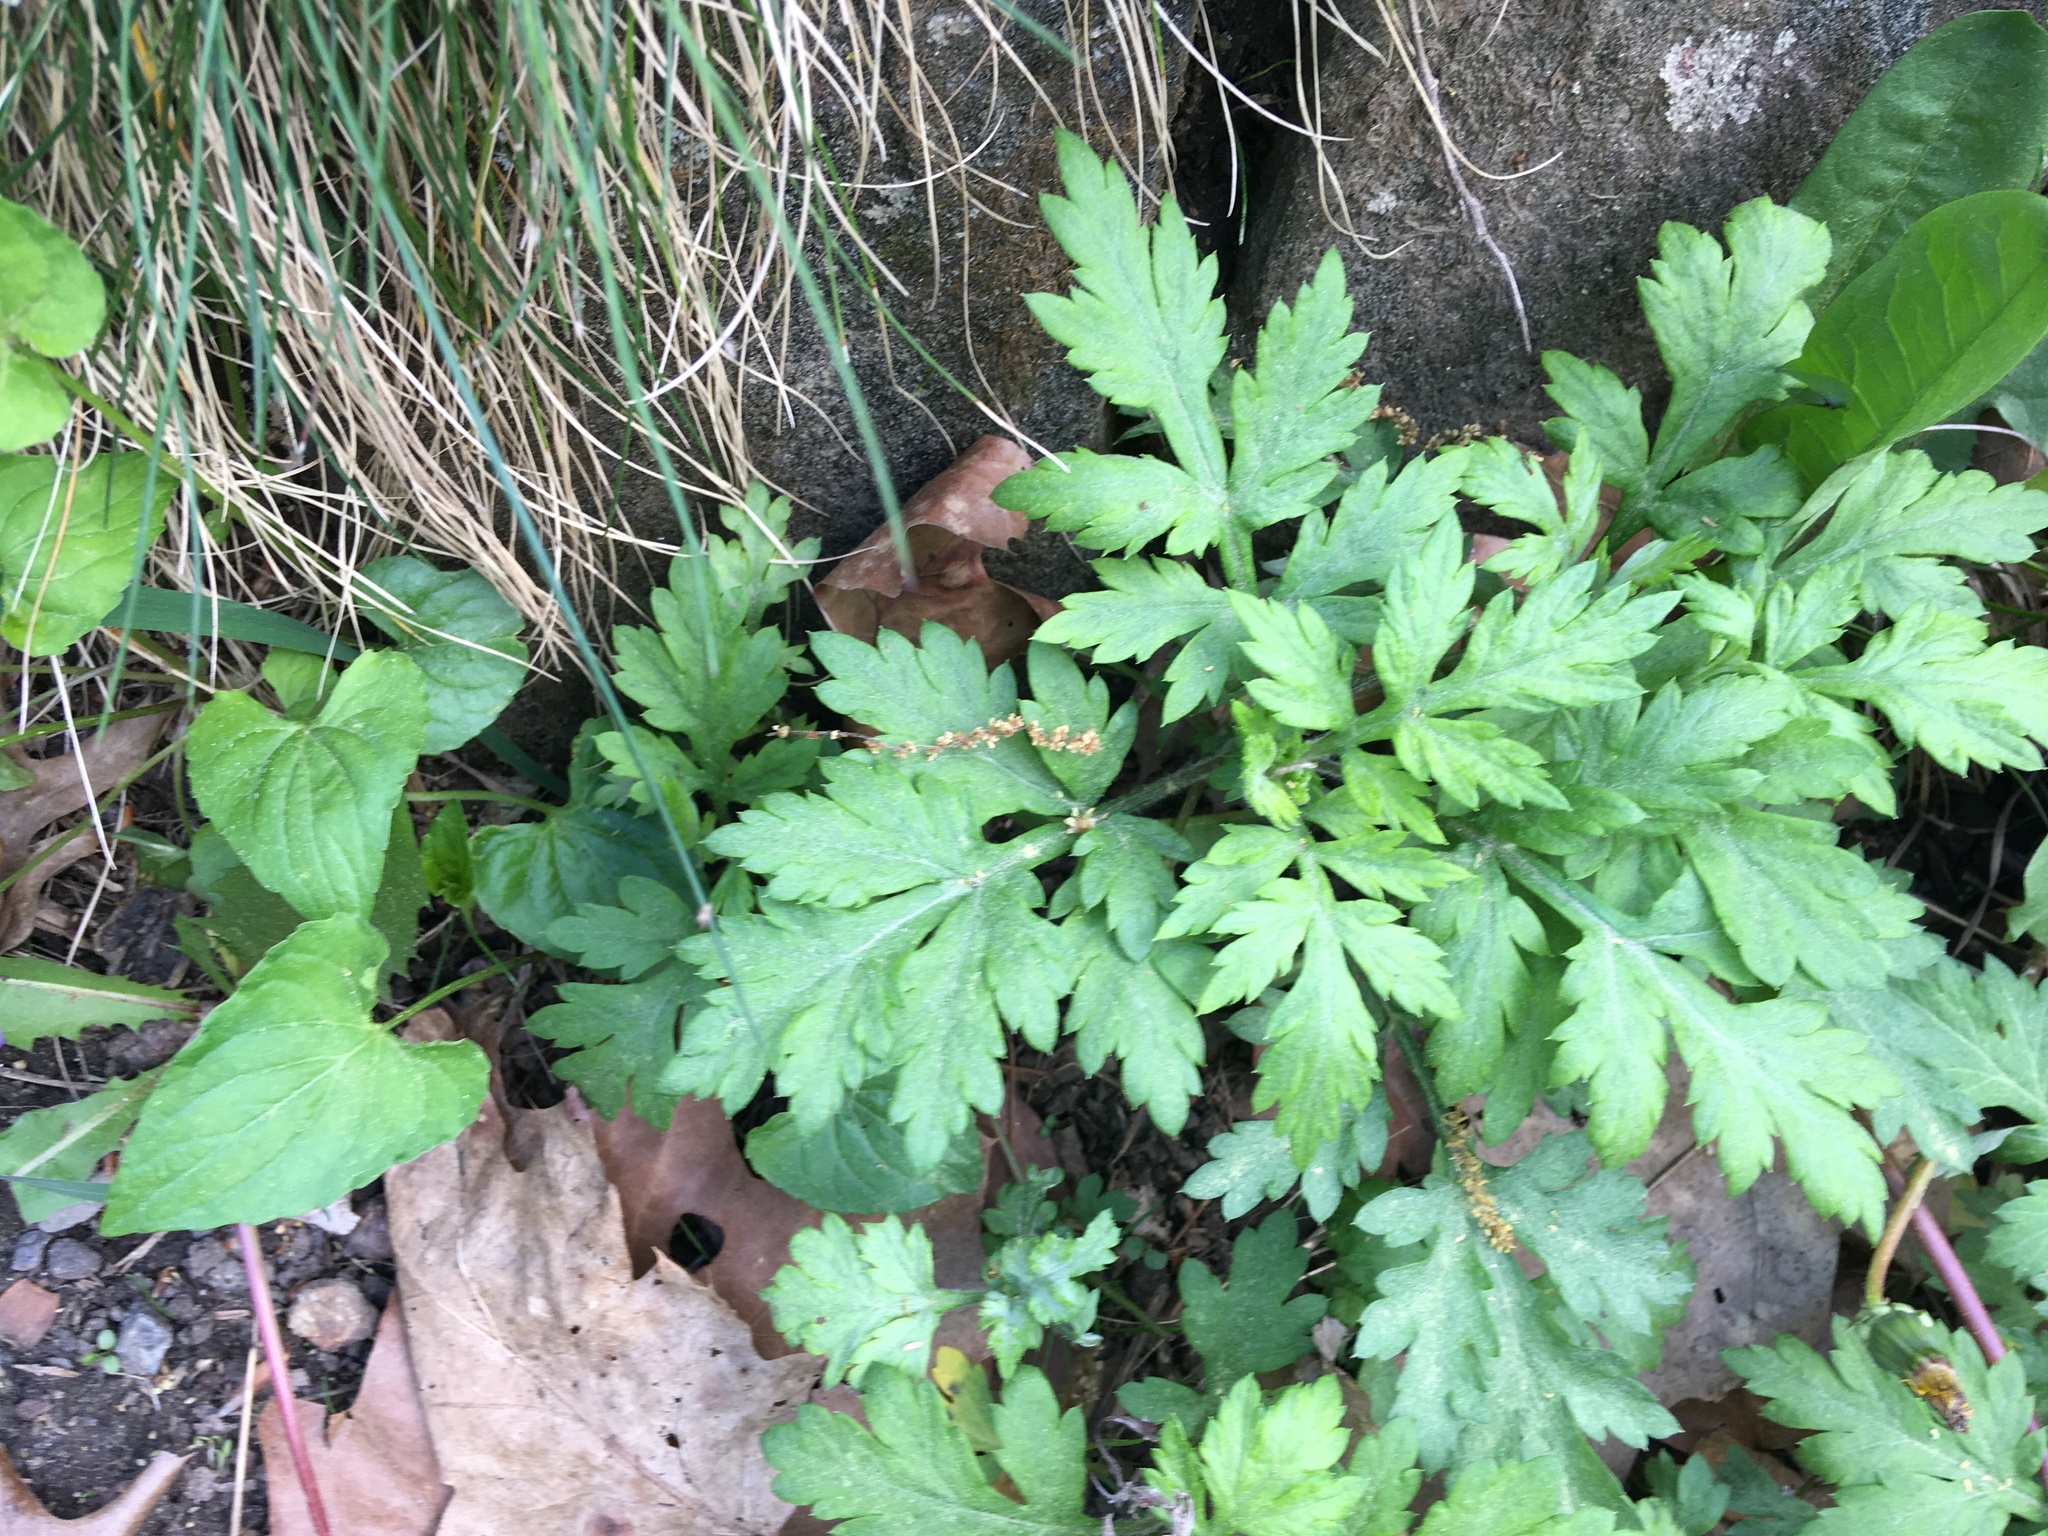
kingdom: Plantae
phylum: Tracheophyta
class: Magnoliopsida
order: Asterales
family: Asteraceae
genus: Artemisia
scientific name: Artemisia vulgaris
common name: Mugwort
